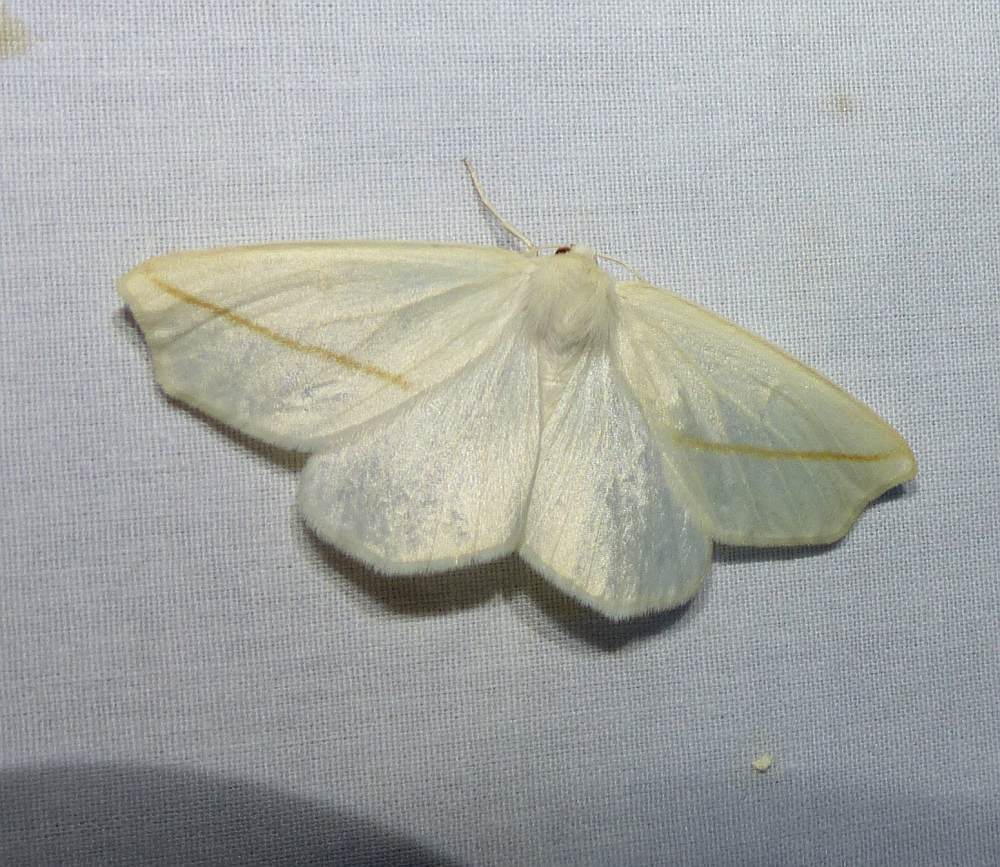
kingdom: Animalia
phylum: Arthropoda
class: Insecta
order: Lepidoptera
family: Geometridae
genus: Tetracis
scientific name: Tetracis cachexiata
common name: White slant-line
